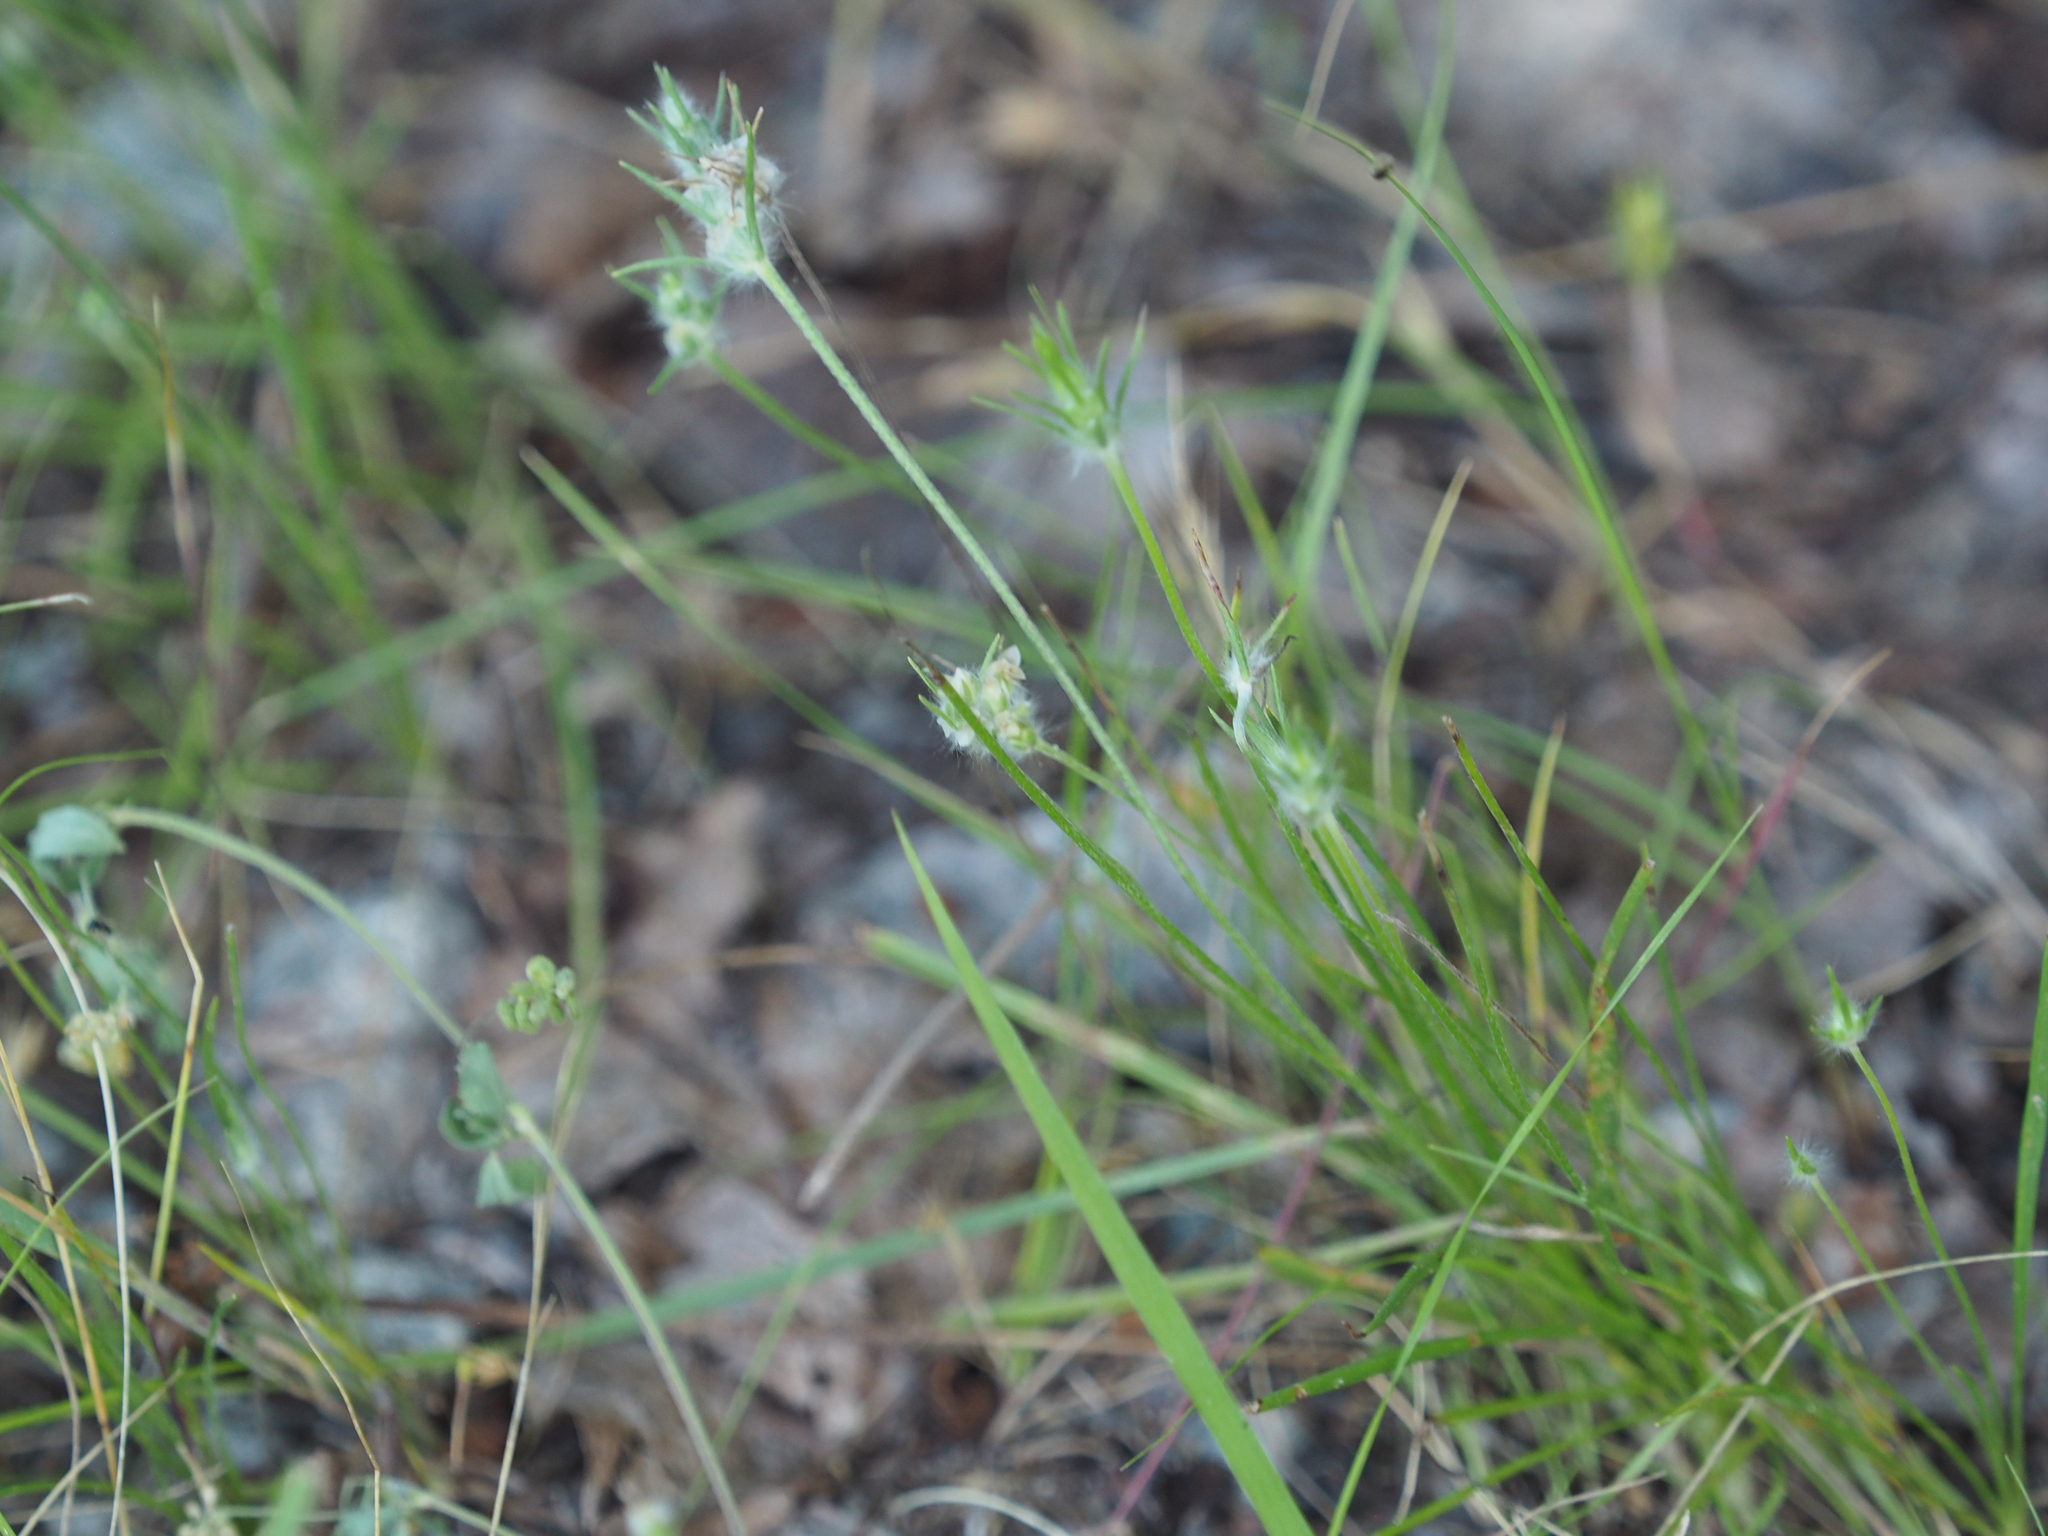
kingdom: Plantae
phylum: Tracheophyta
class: Magnoliopsida
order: Lamiales
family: Plantaginaceae
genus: Plantago
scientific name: Plantago aristata
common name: Bracted plantain
